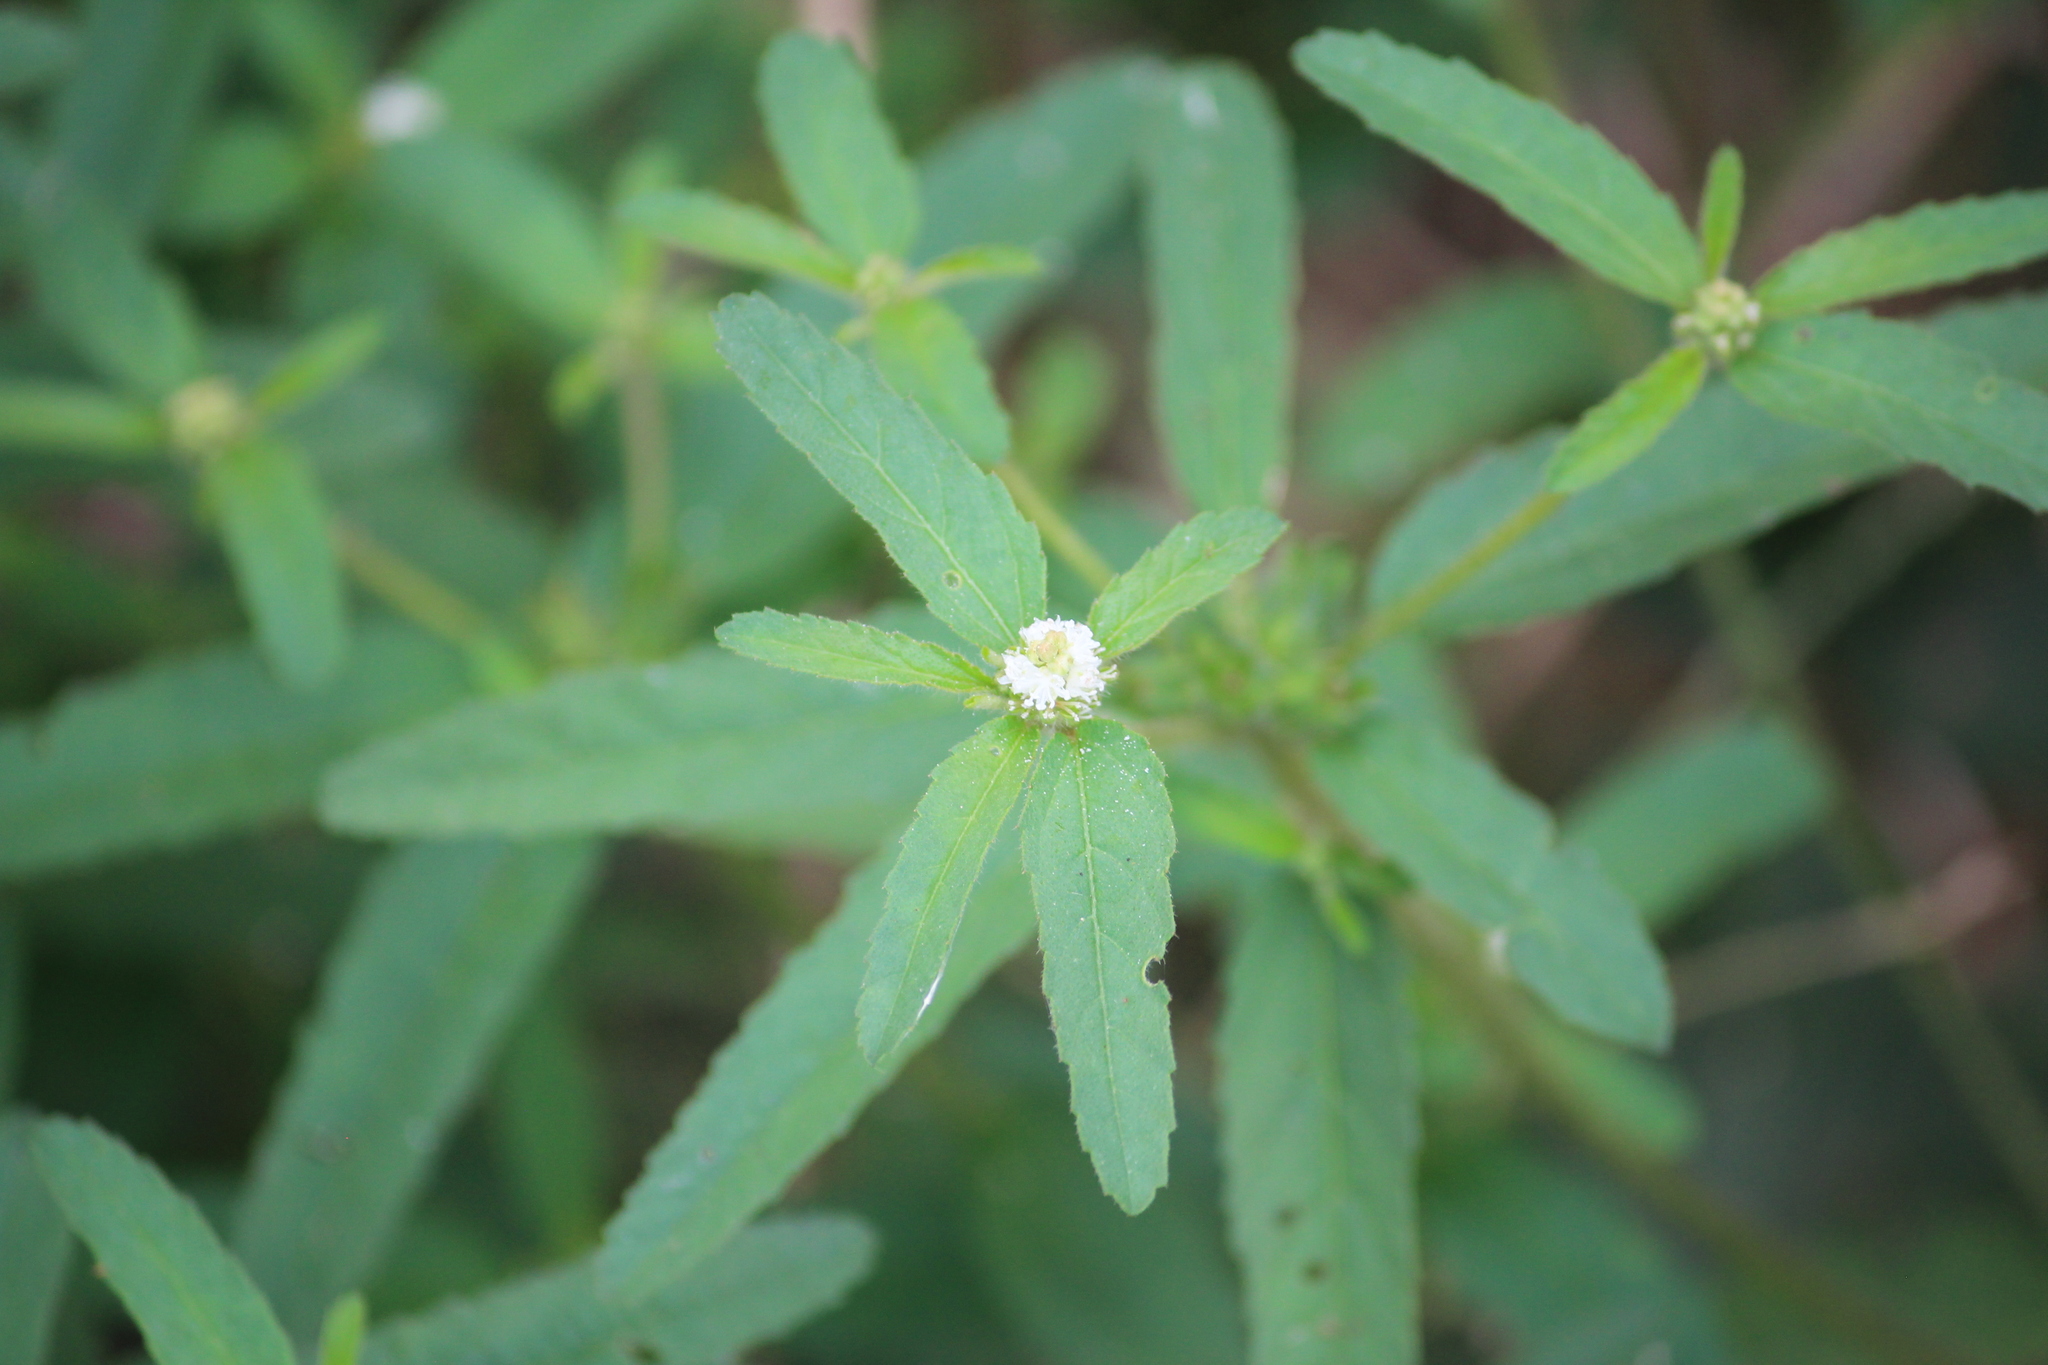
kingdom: Plantae
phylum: Tracheophyta
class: Magnoliopsida
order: Malpighiales
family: Euphorbiaceae
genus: Croton
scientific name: Croton glandulosus
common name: Tropic croton
